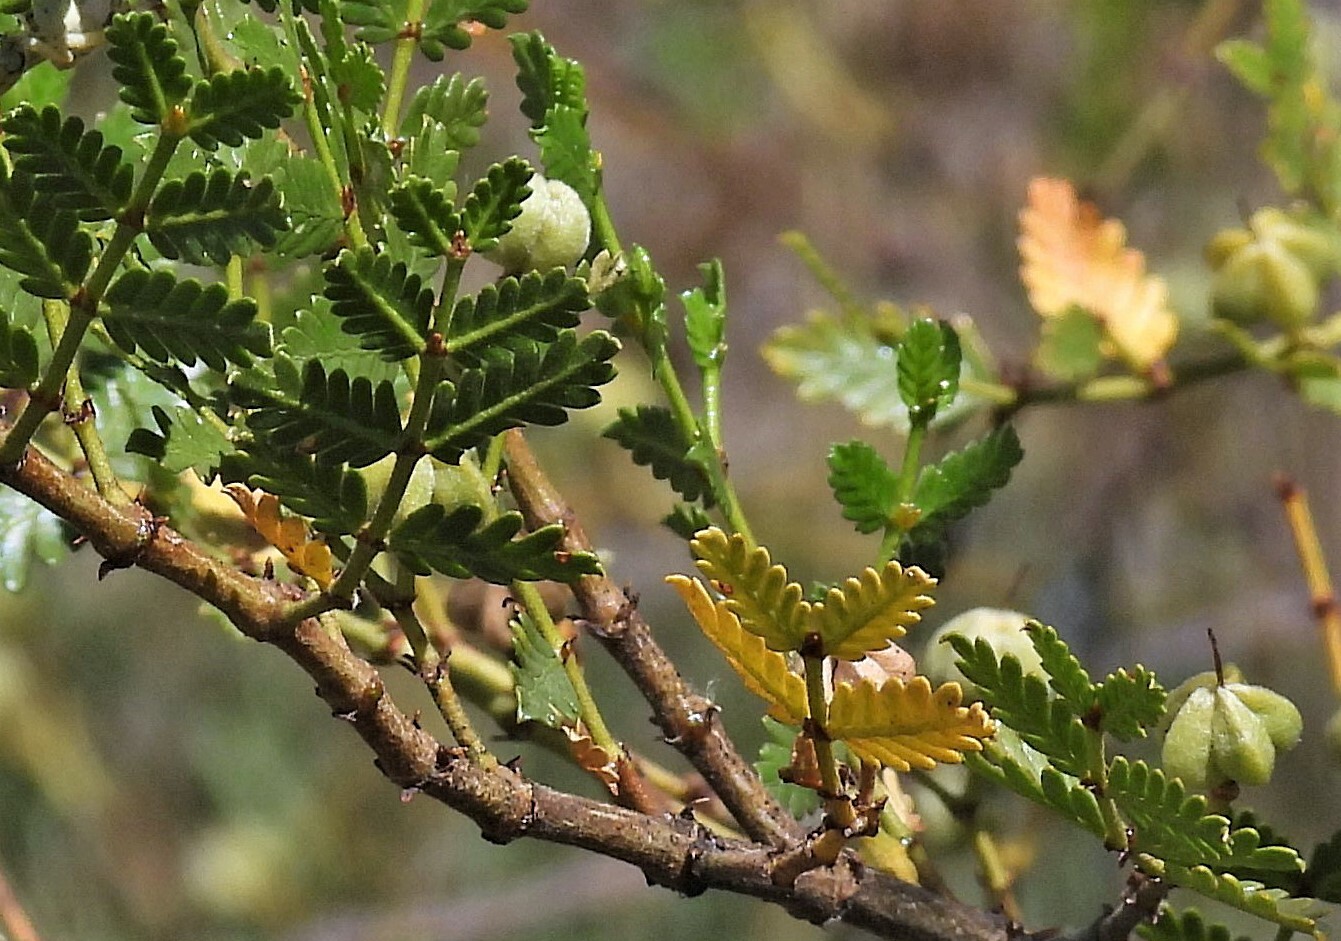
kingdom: Plantae
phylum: Tracheophyta
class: Magnoliopsida
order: Zygophyllales
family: Zygophyllaceae
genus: Larrea
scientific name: Larrea nitida
